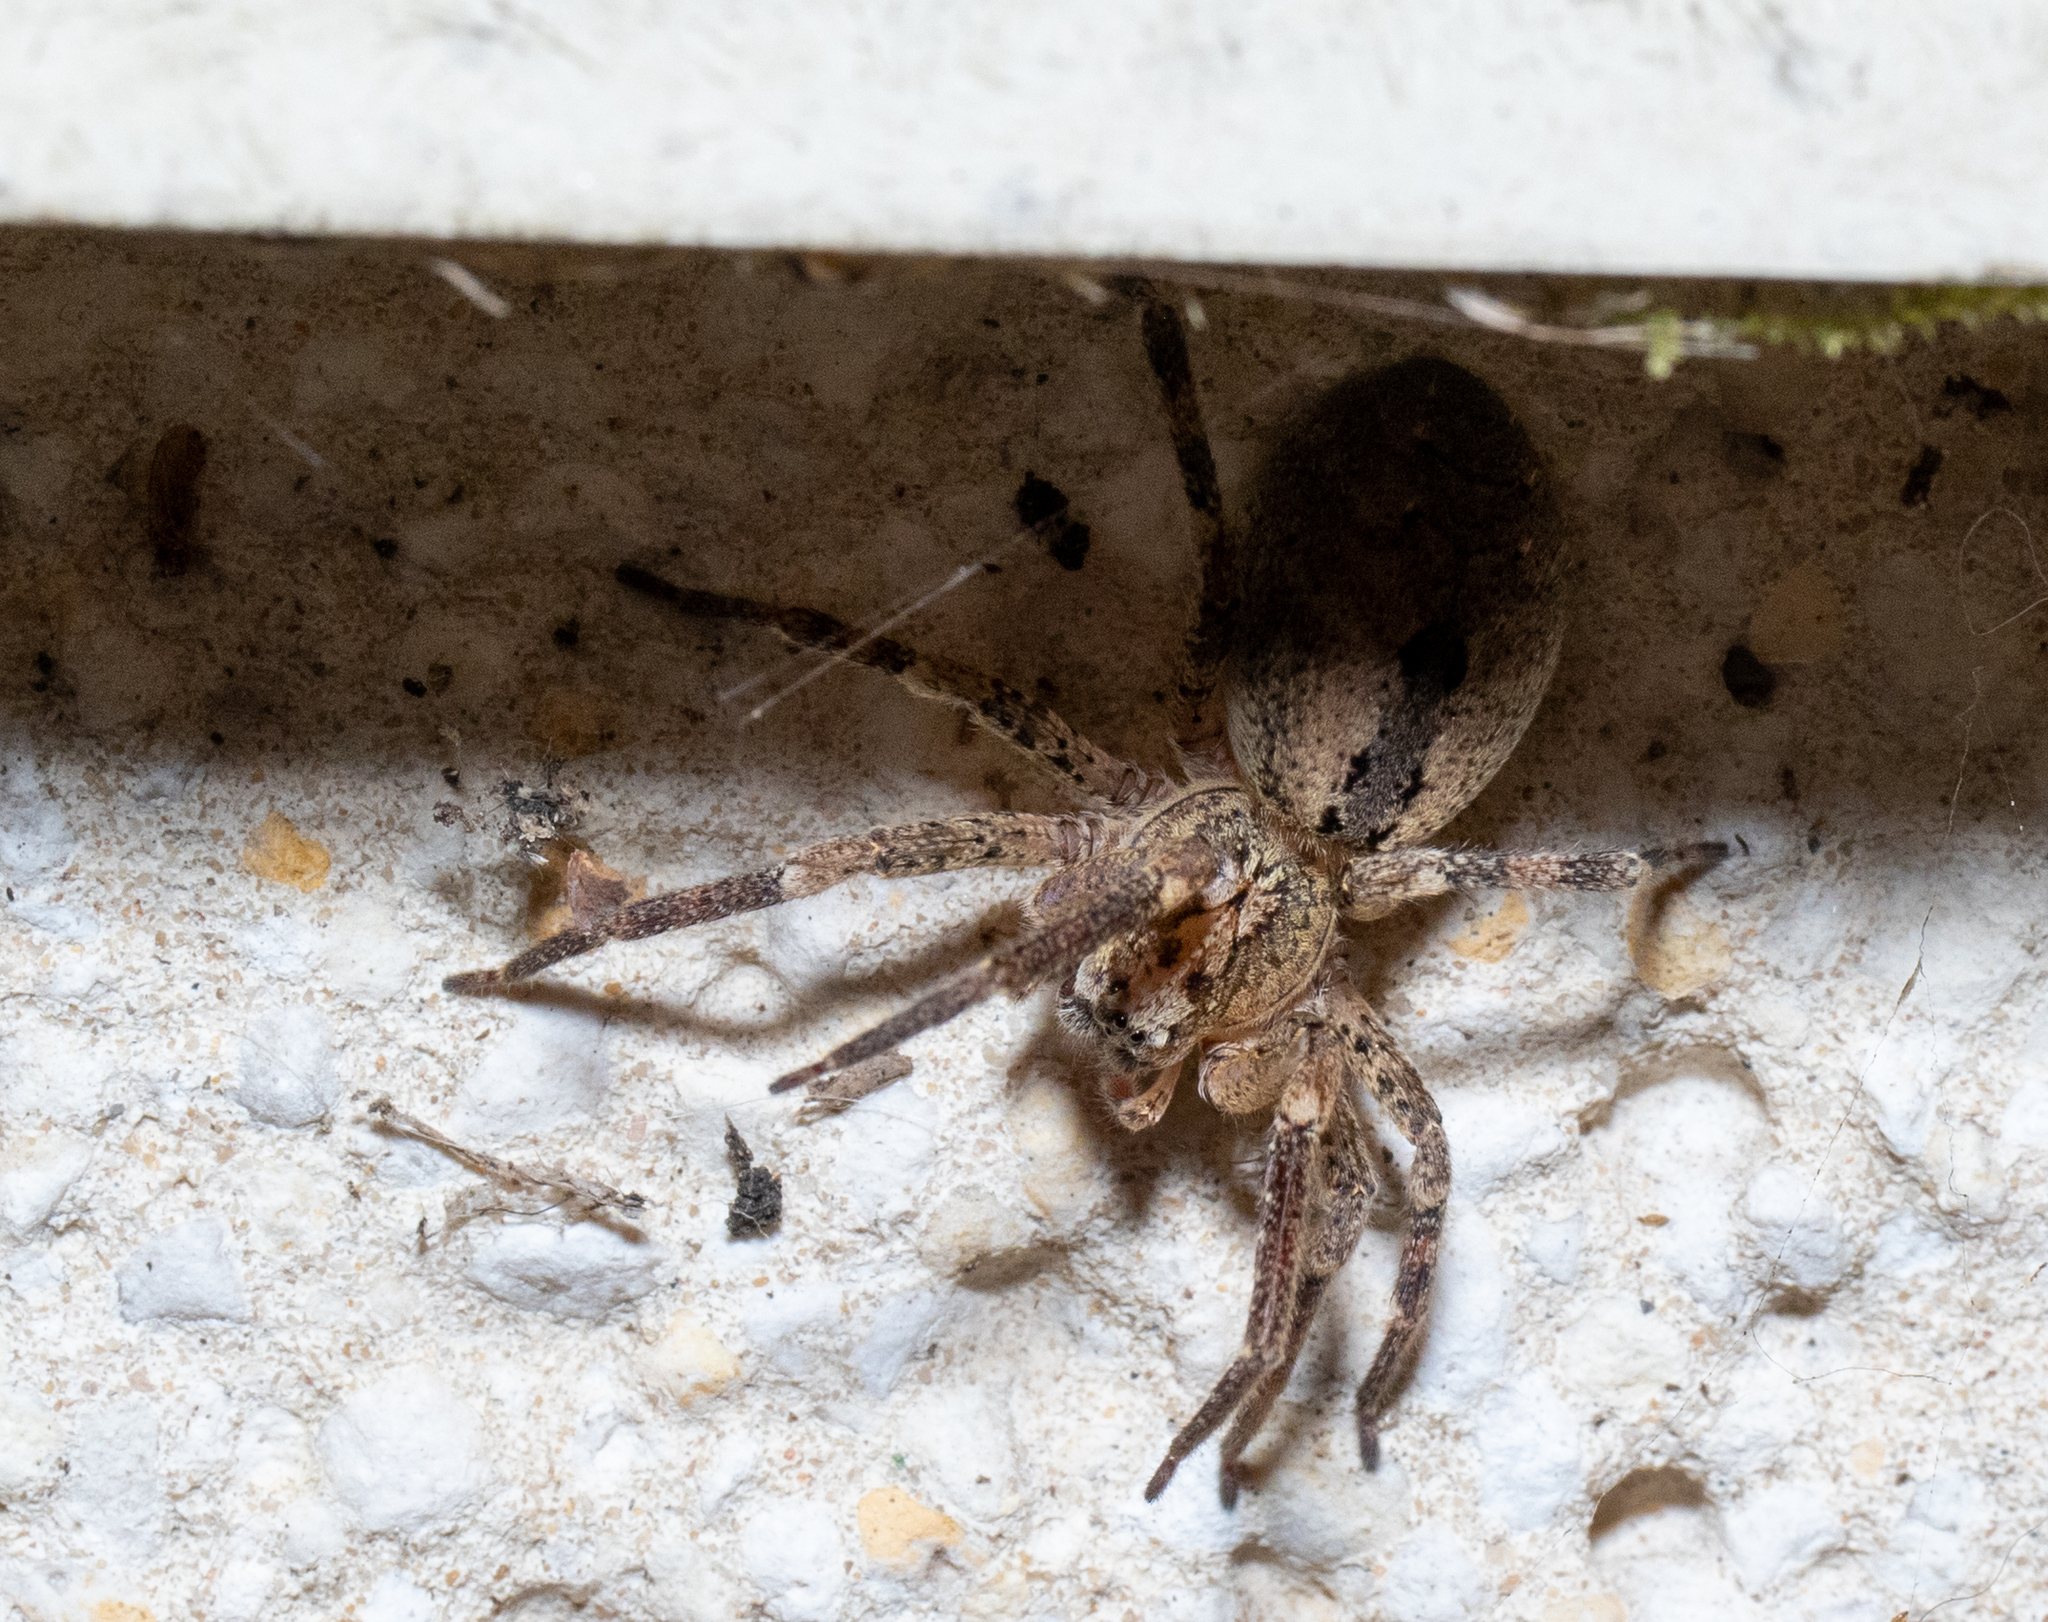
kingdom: Animalia
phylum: Arthropoda
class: Arachnida
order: Araneae
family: Zoropsidae
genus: Zoropsis
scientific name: Zoropsis spinimana
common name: Zoropsid spider
